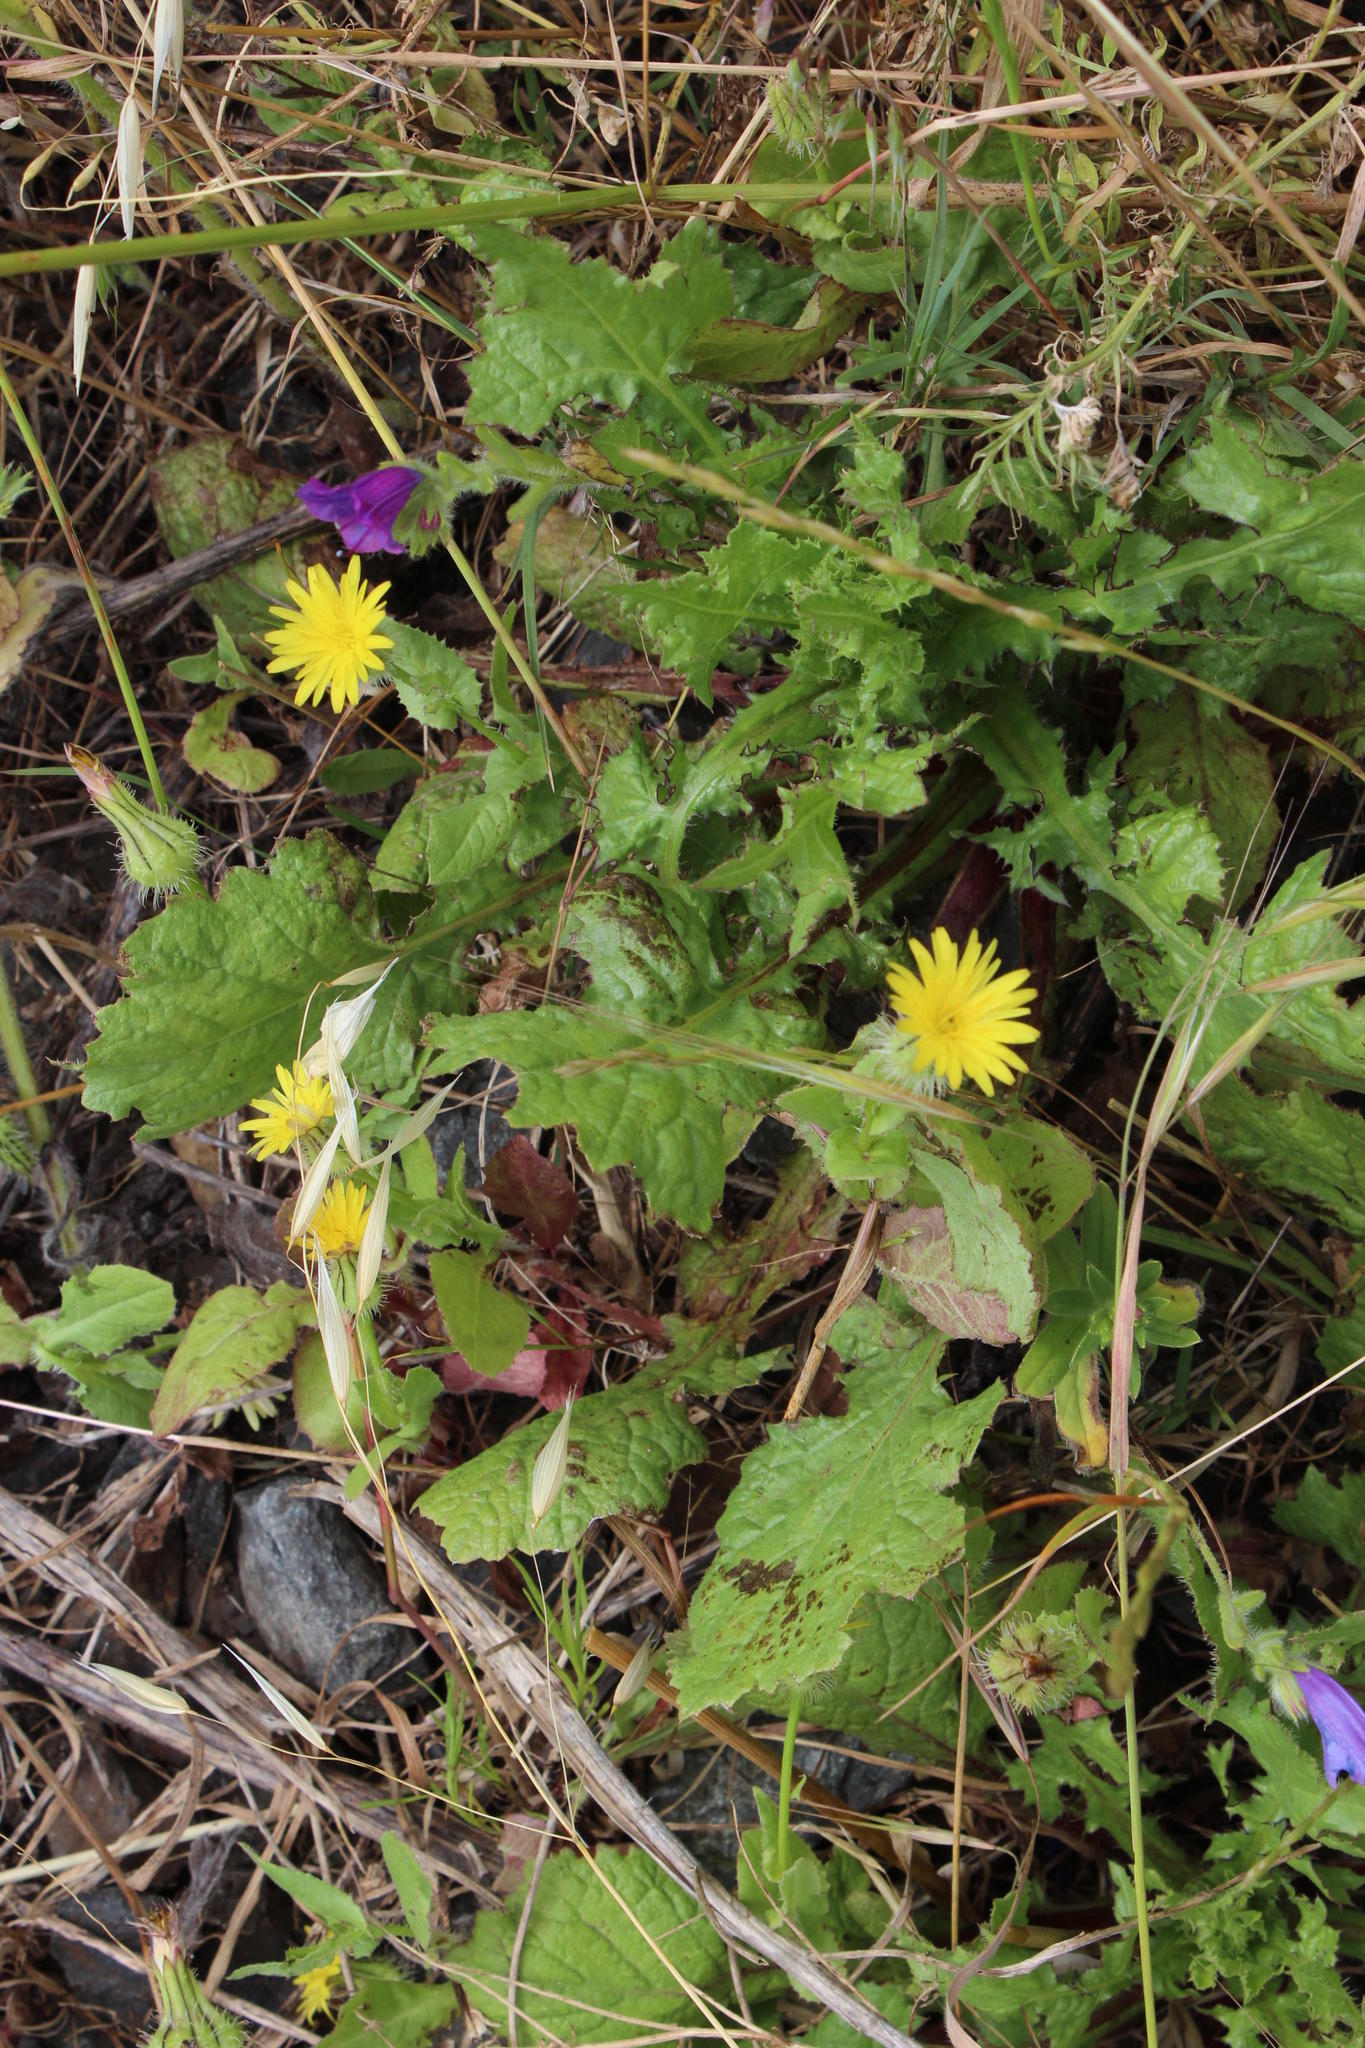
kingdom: Plantae
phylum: Tracheophyta
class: Magnoliopsida
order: Asterales
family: Asteraceae
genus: Urospermum
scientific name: Urospermum picroides
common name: False hawkbit
